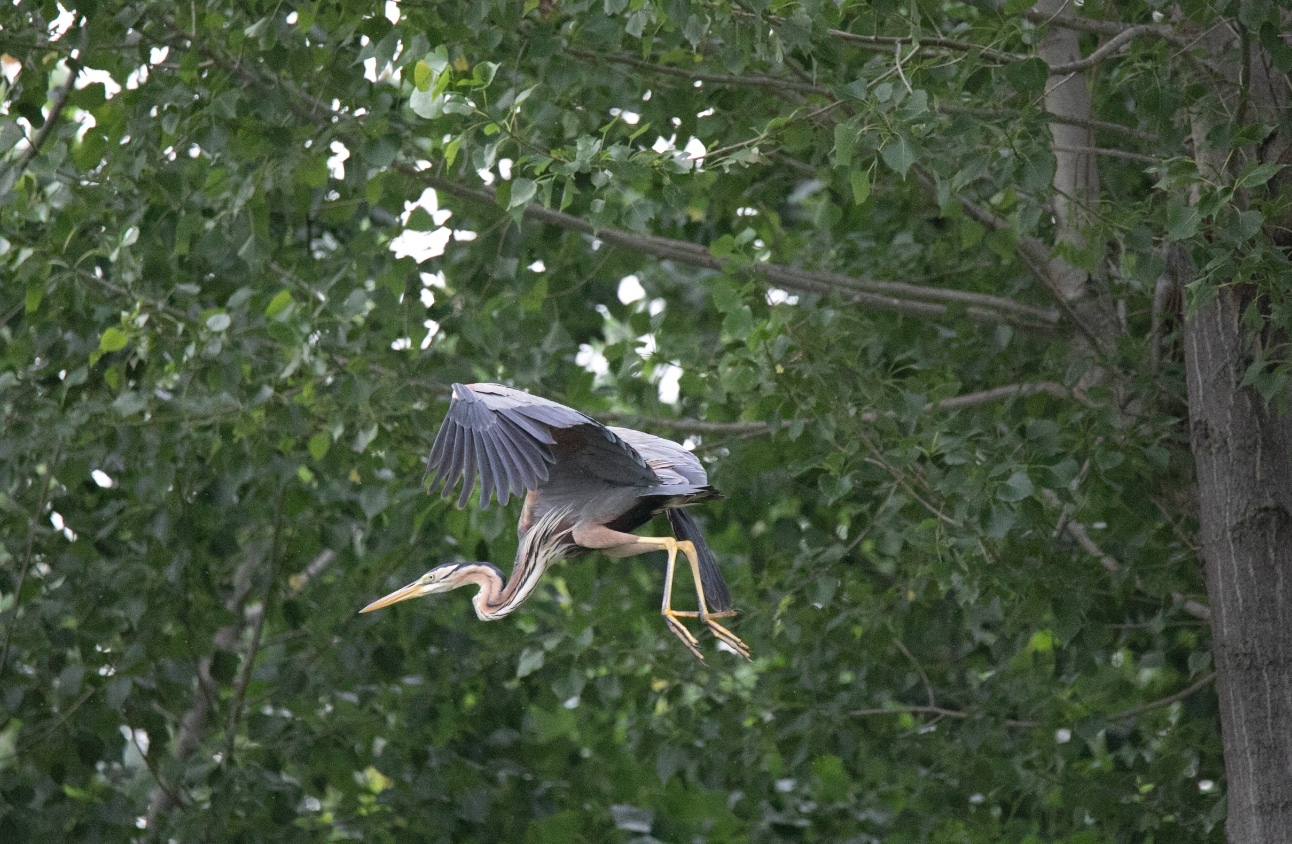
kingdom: Animalia
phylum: Chordata
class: Aves
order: Pelecaniformes
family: Ardeidae
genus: Ardea
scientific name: Ardea purpurea
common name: Purple heron
